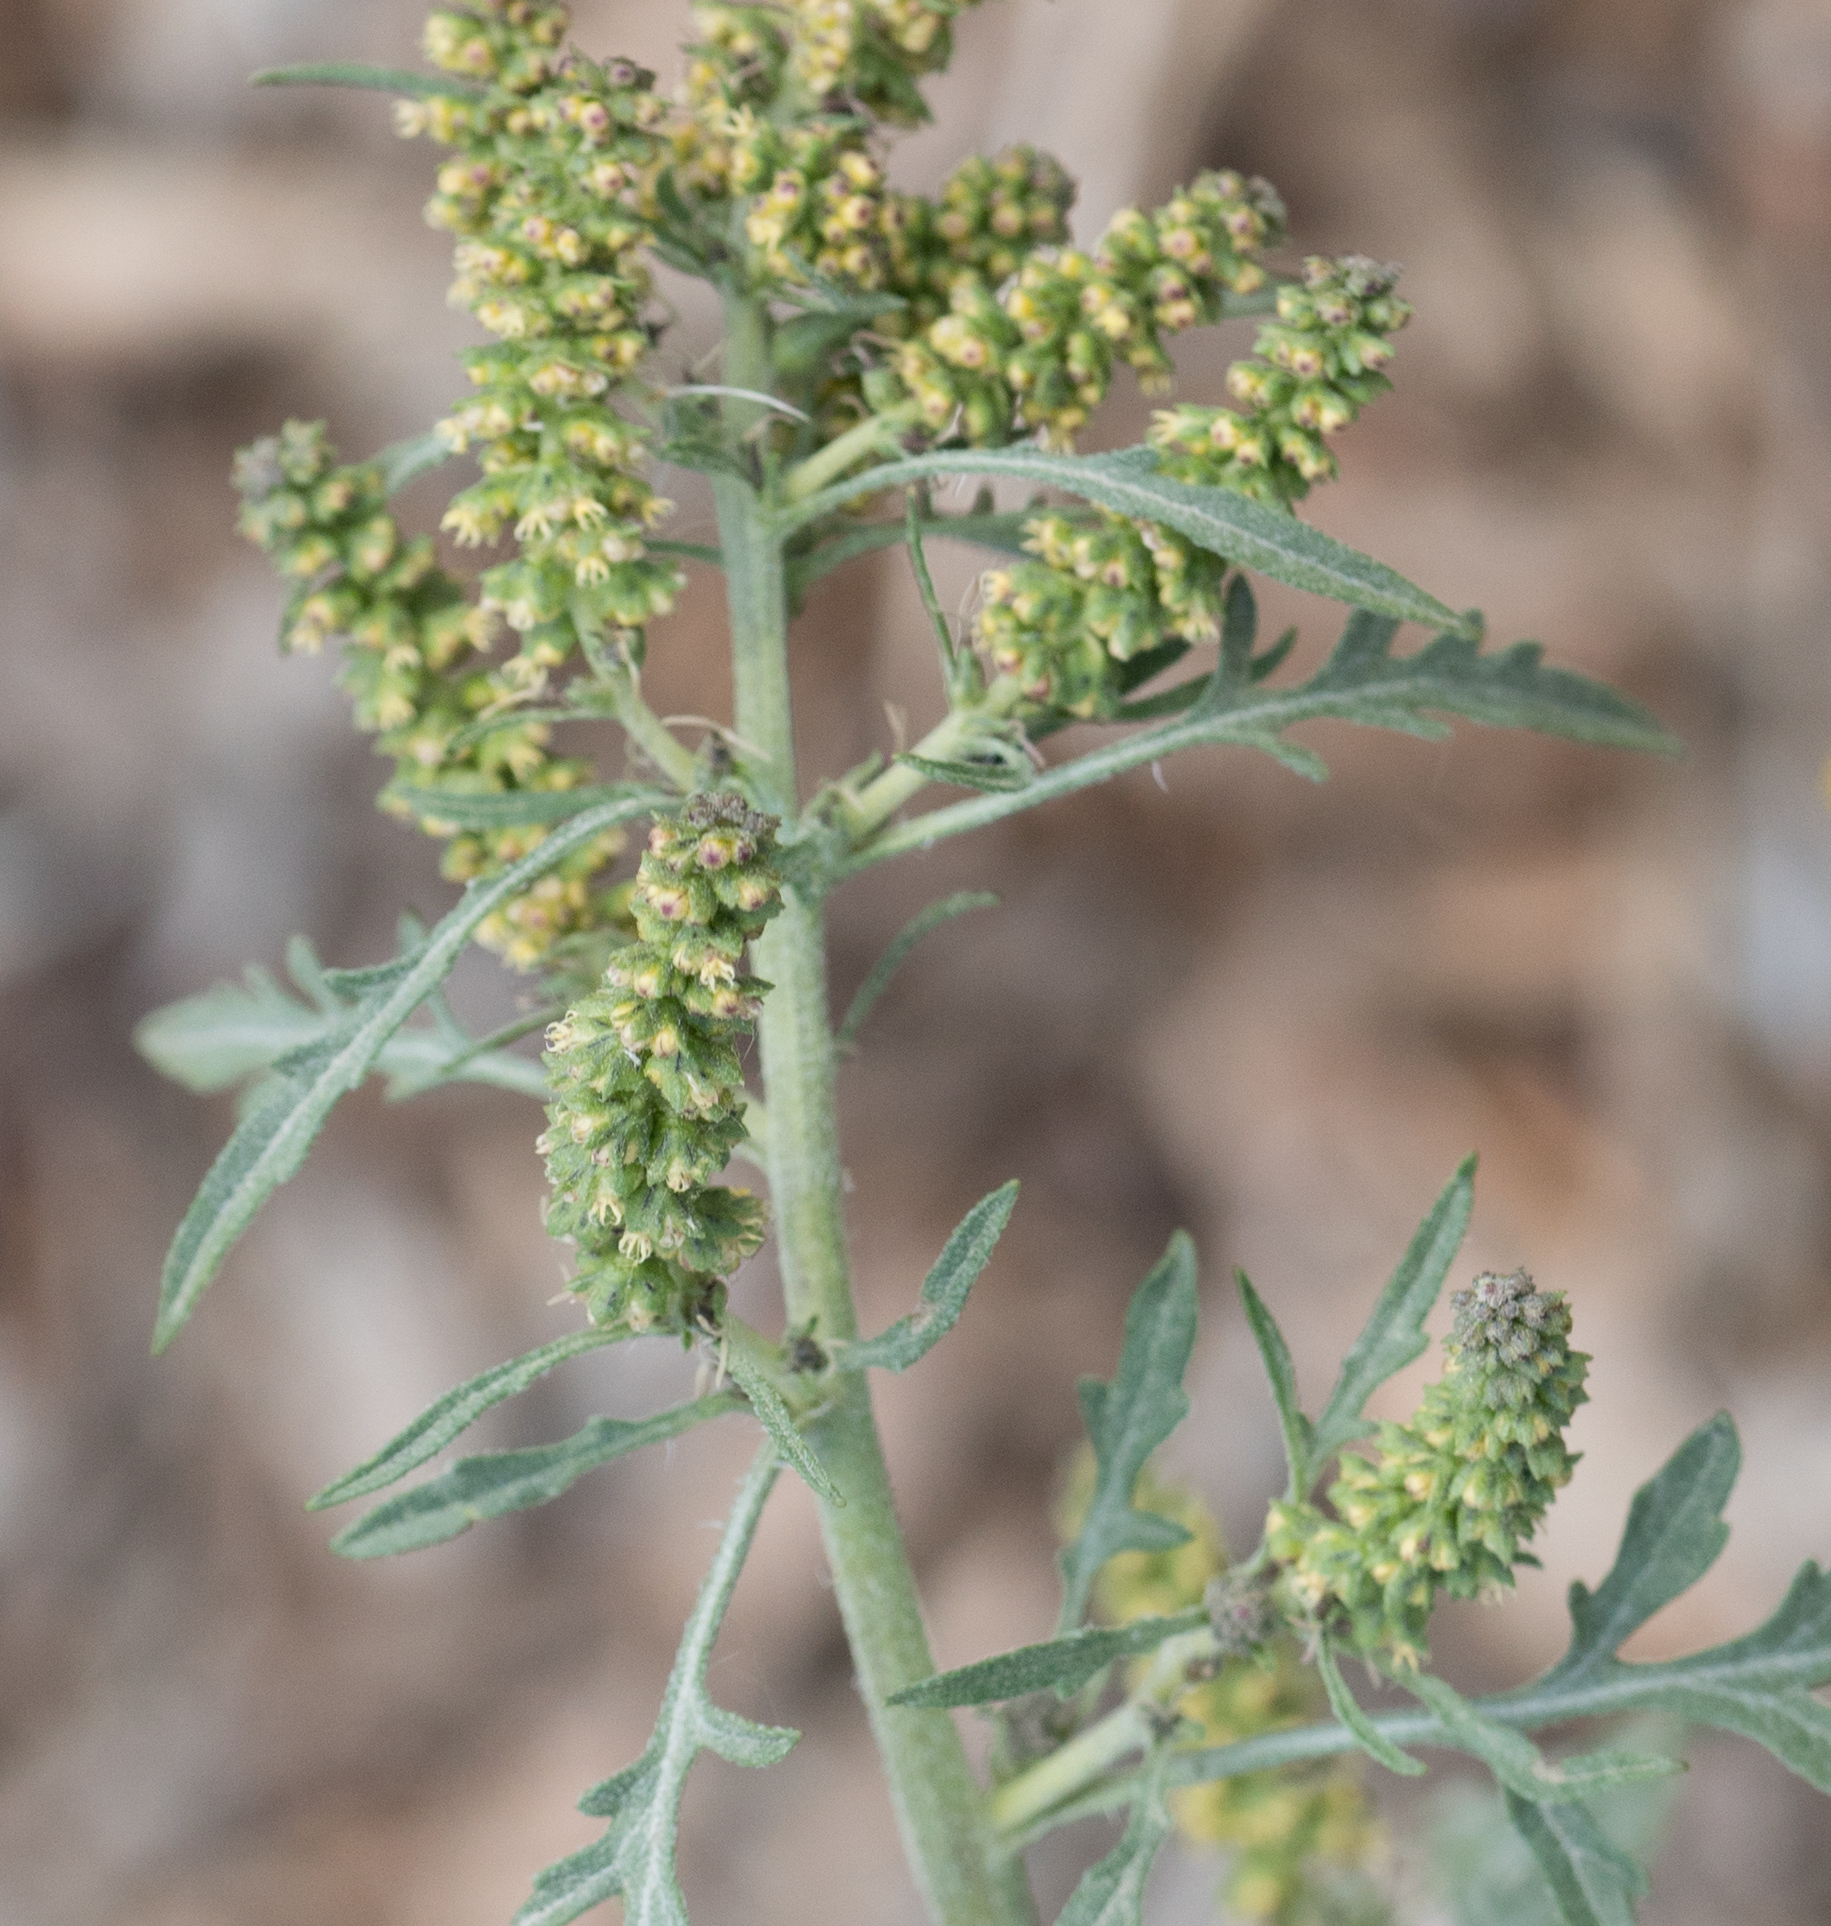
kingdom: Plantae
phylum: Tracheophyta
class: Magnoliopsida
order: Asterales
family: Asteraceae
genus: Ambrosia
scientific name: Ambrosia acanthicarpa
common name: Hooker's bur ragweed
